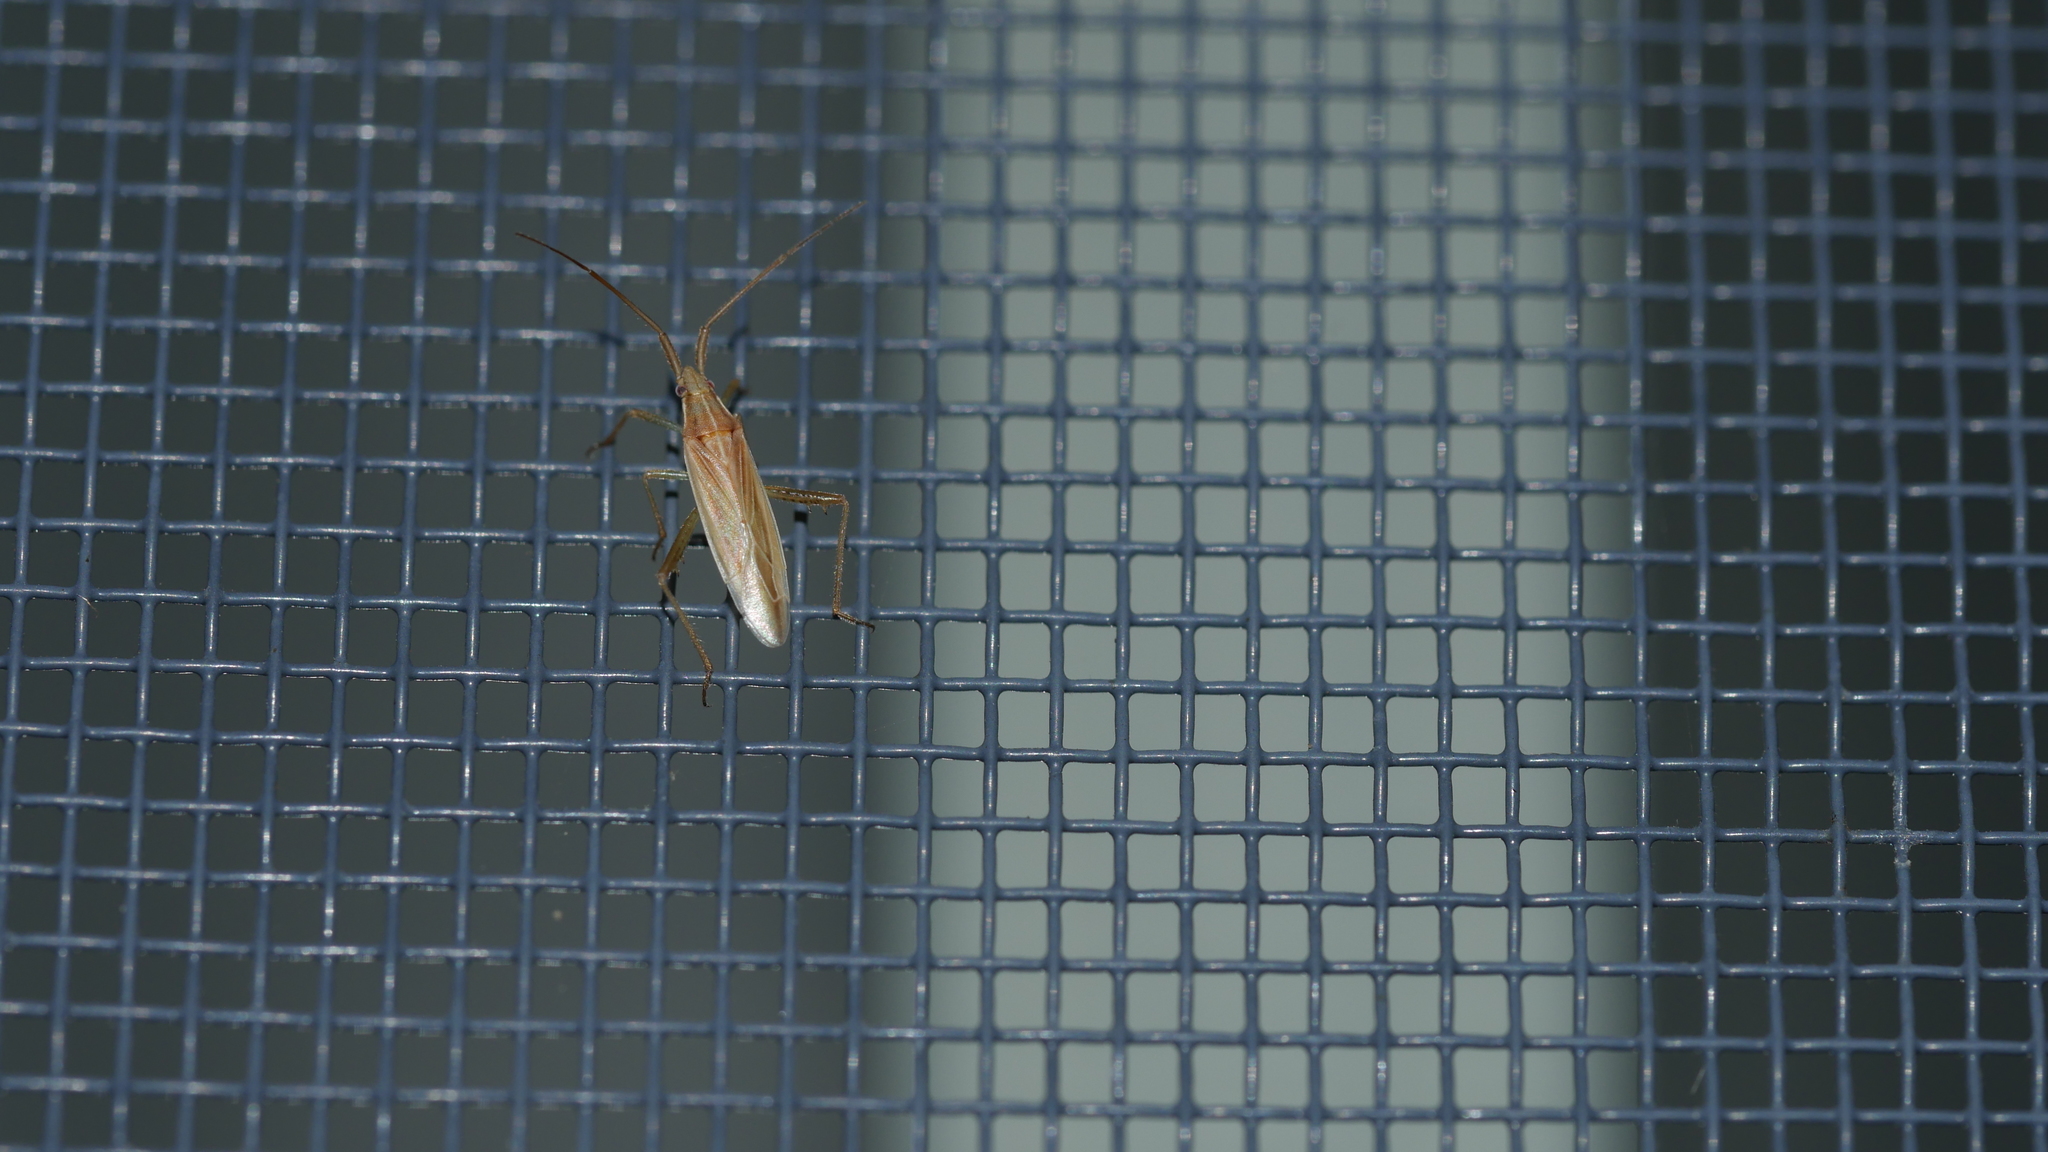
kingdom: Animalia
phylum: Arthropoda
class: Insecta
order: Hemiptera
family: Miridae
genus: Stenodema
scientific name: Stenodema trispinosa
